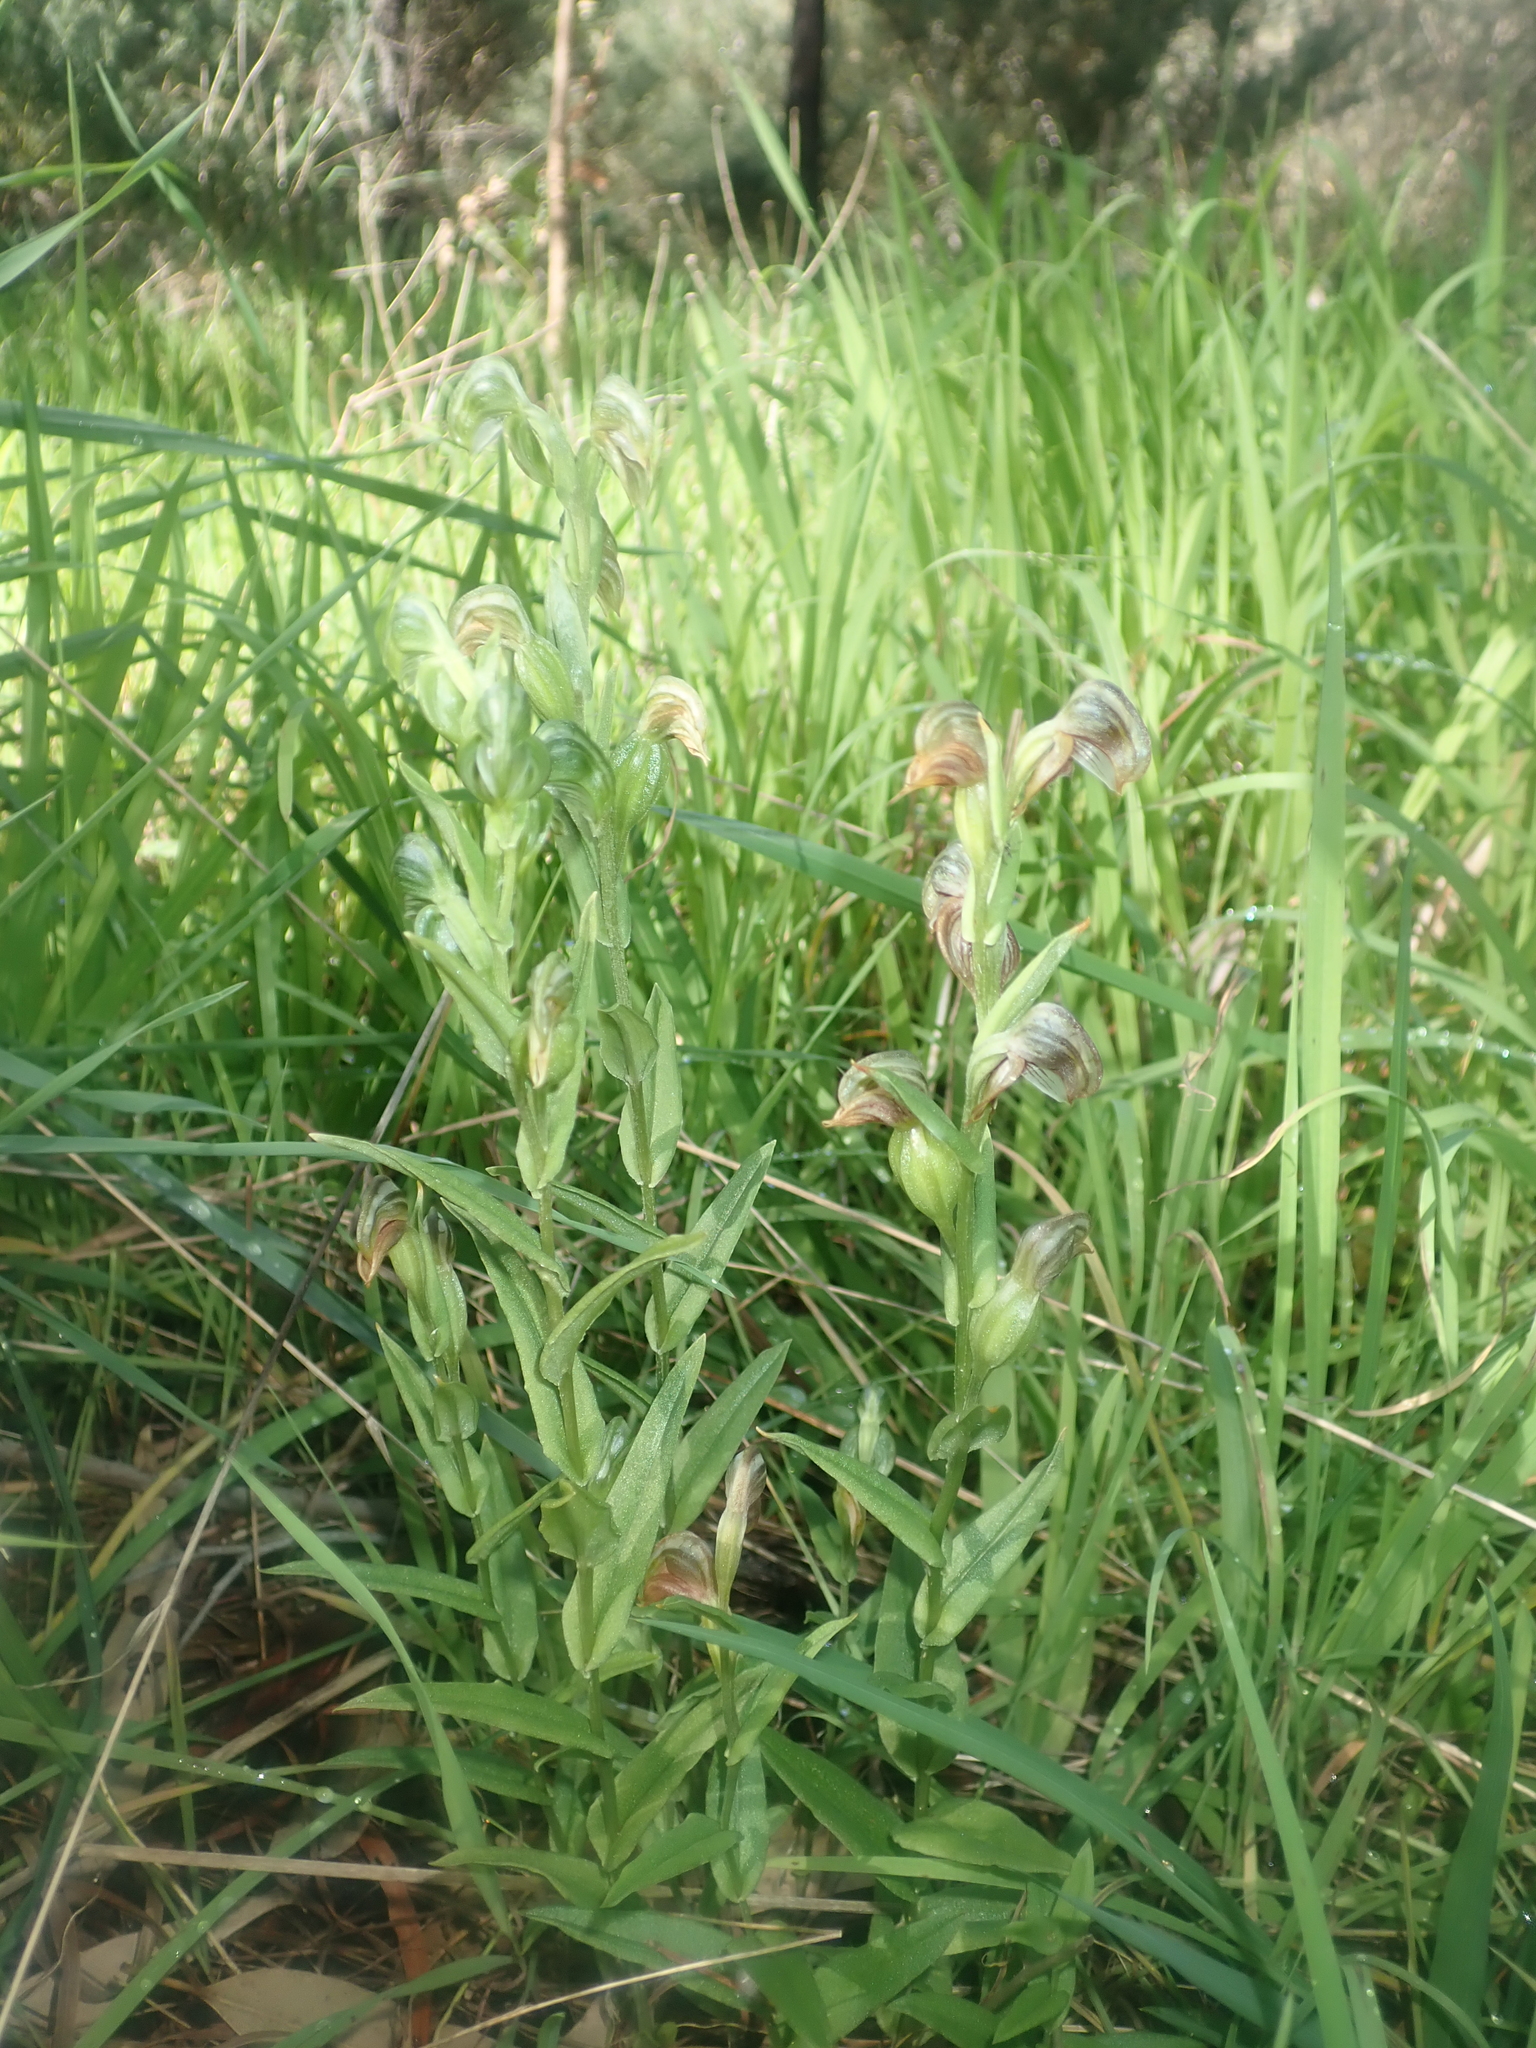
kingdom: Plantae
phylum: Tracheophyta
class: Liliopsida
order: Asparagales
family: Orchidaceae
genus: Pterostylis
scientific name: Pterostylis vittata
